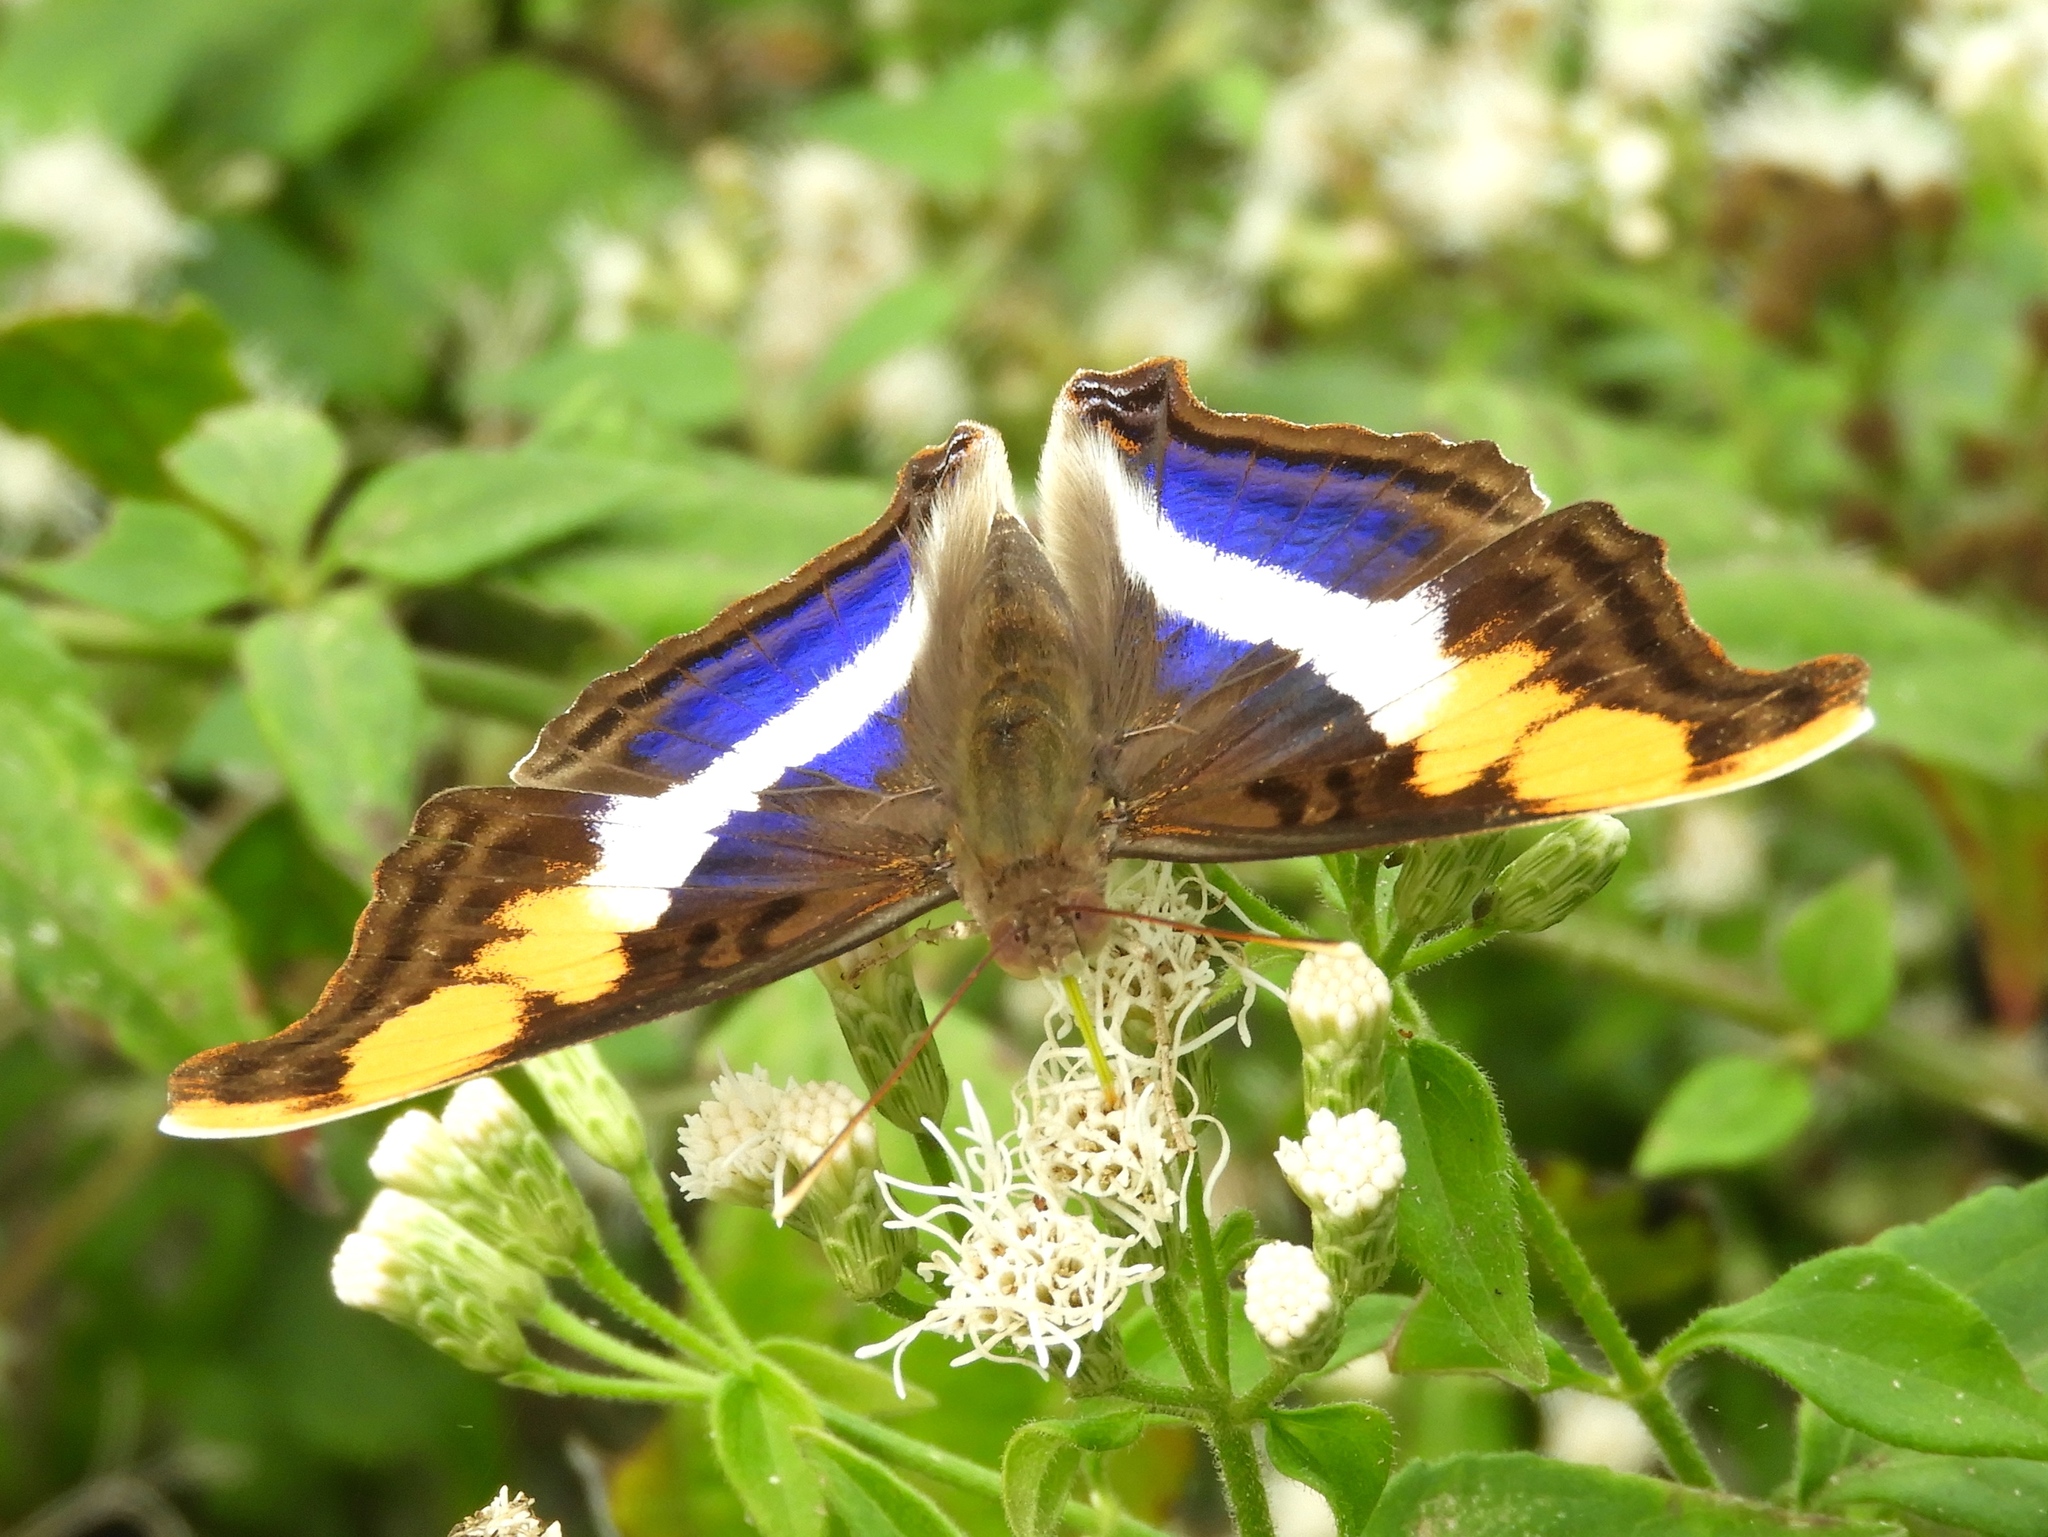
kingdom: Animalia
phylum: Arthropoda
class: Insecta
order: Lepidoptera
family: Nymphalidae
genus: Doxocopa
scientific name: Doxocopa laure
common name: Silver emperor
